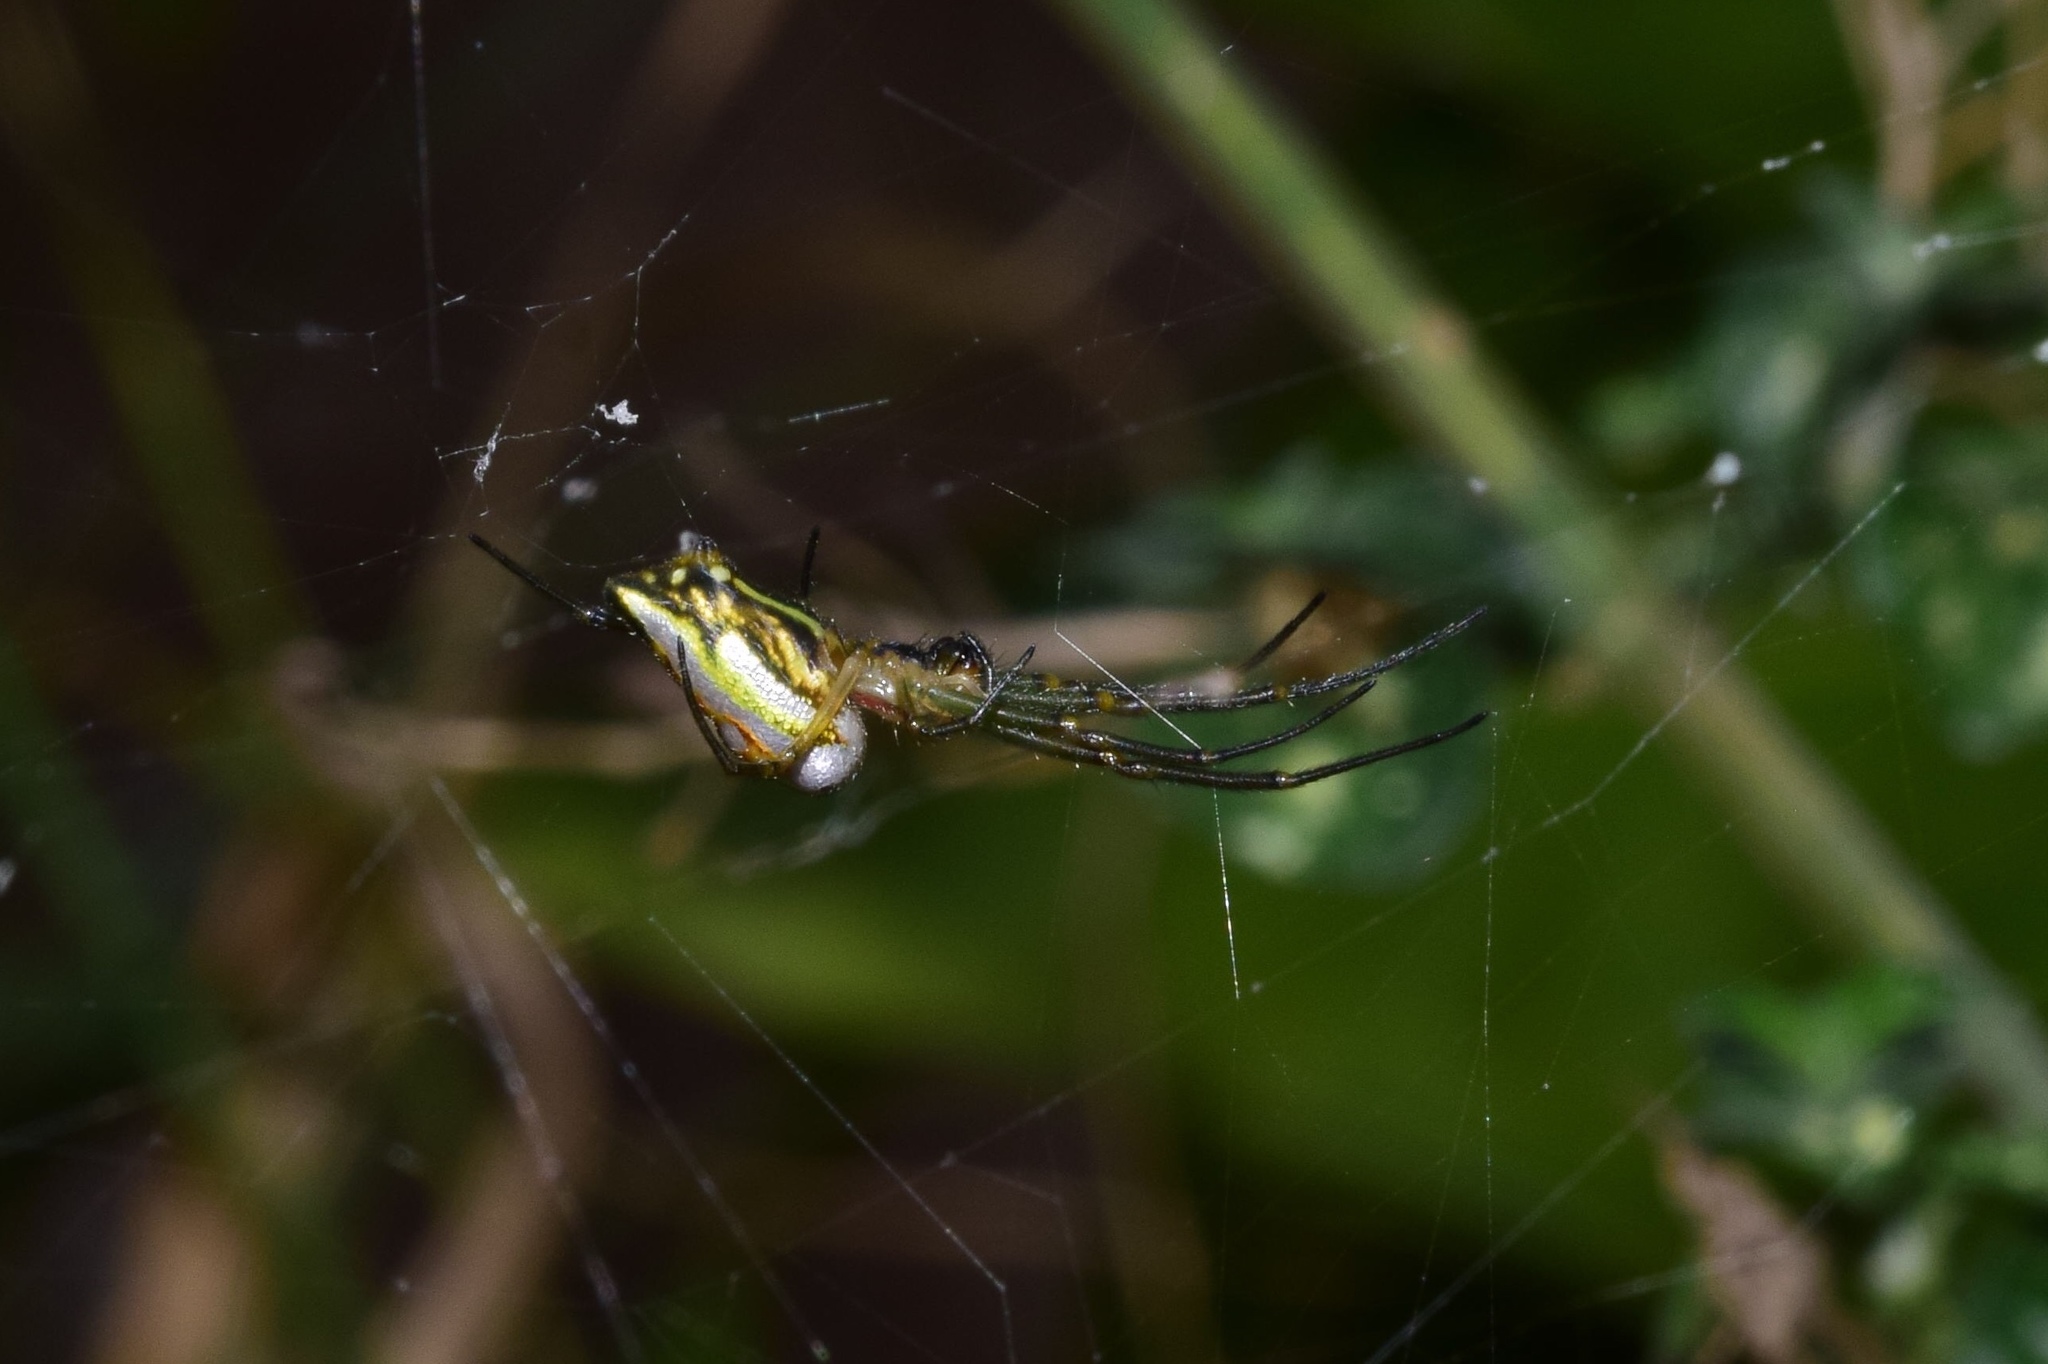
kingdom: Animalia
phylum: Arthropoda
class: Arachnida
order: Araneae
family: Tetragnathidae
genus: Leucauge
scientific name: Leucauge festiva
